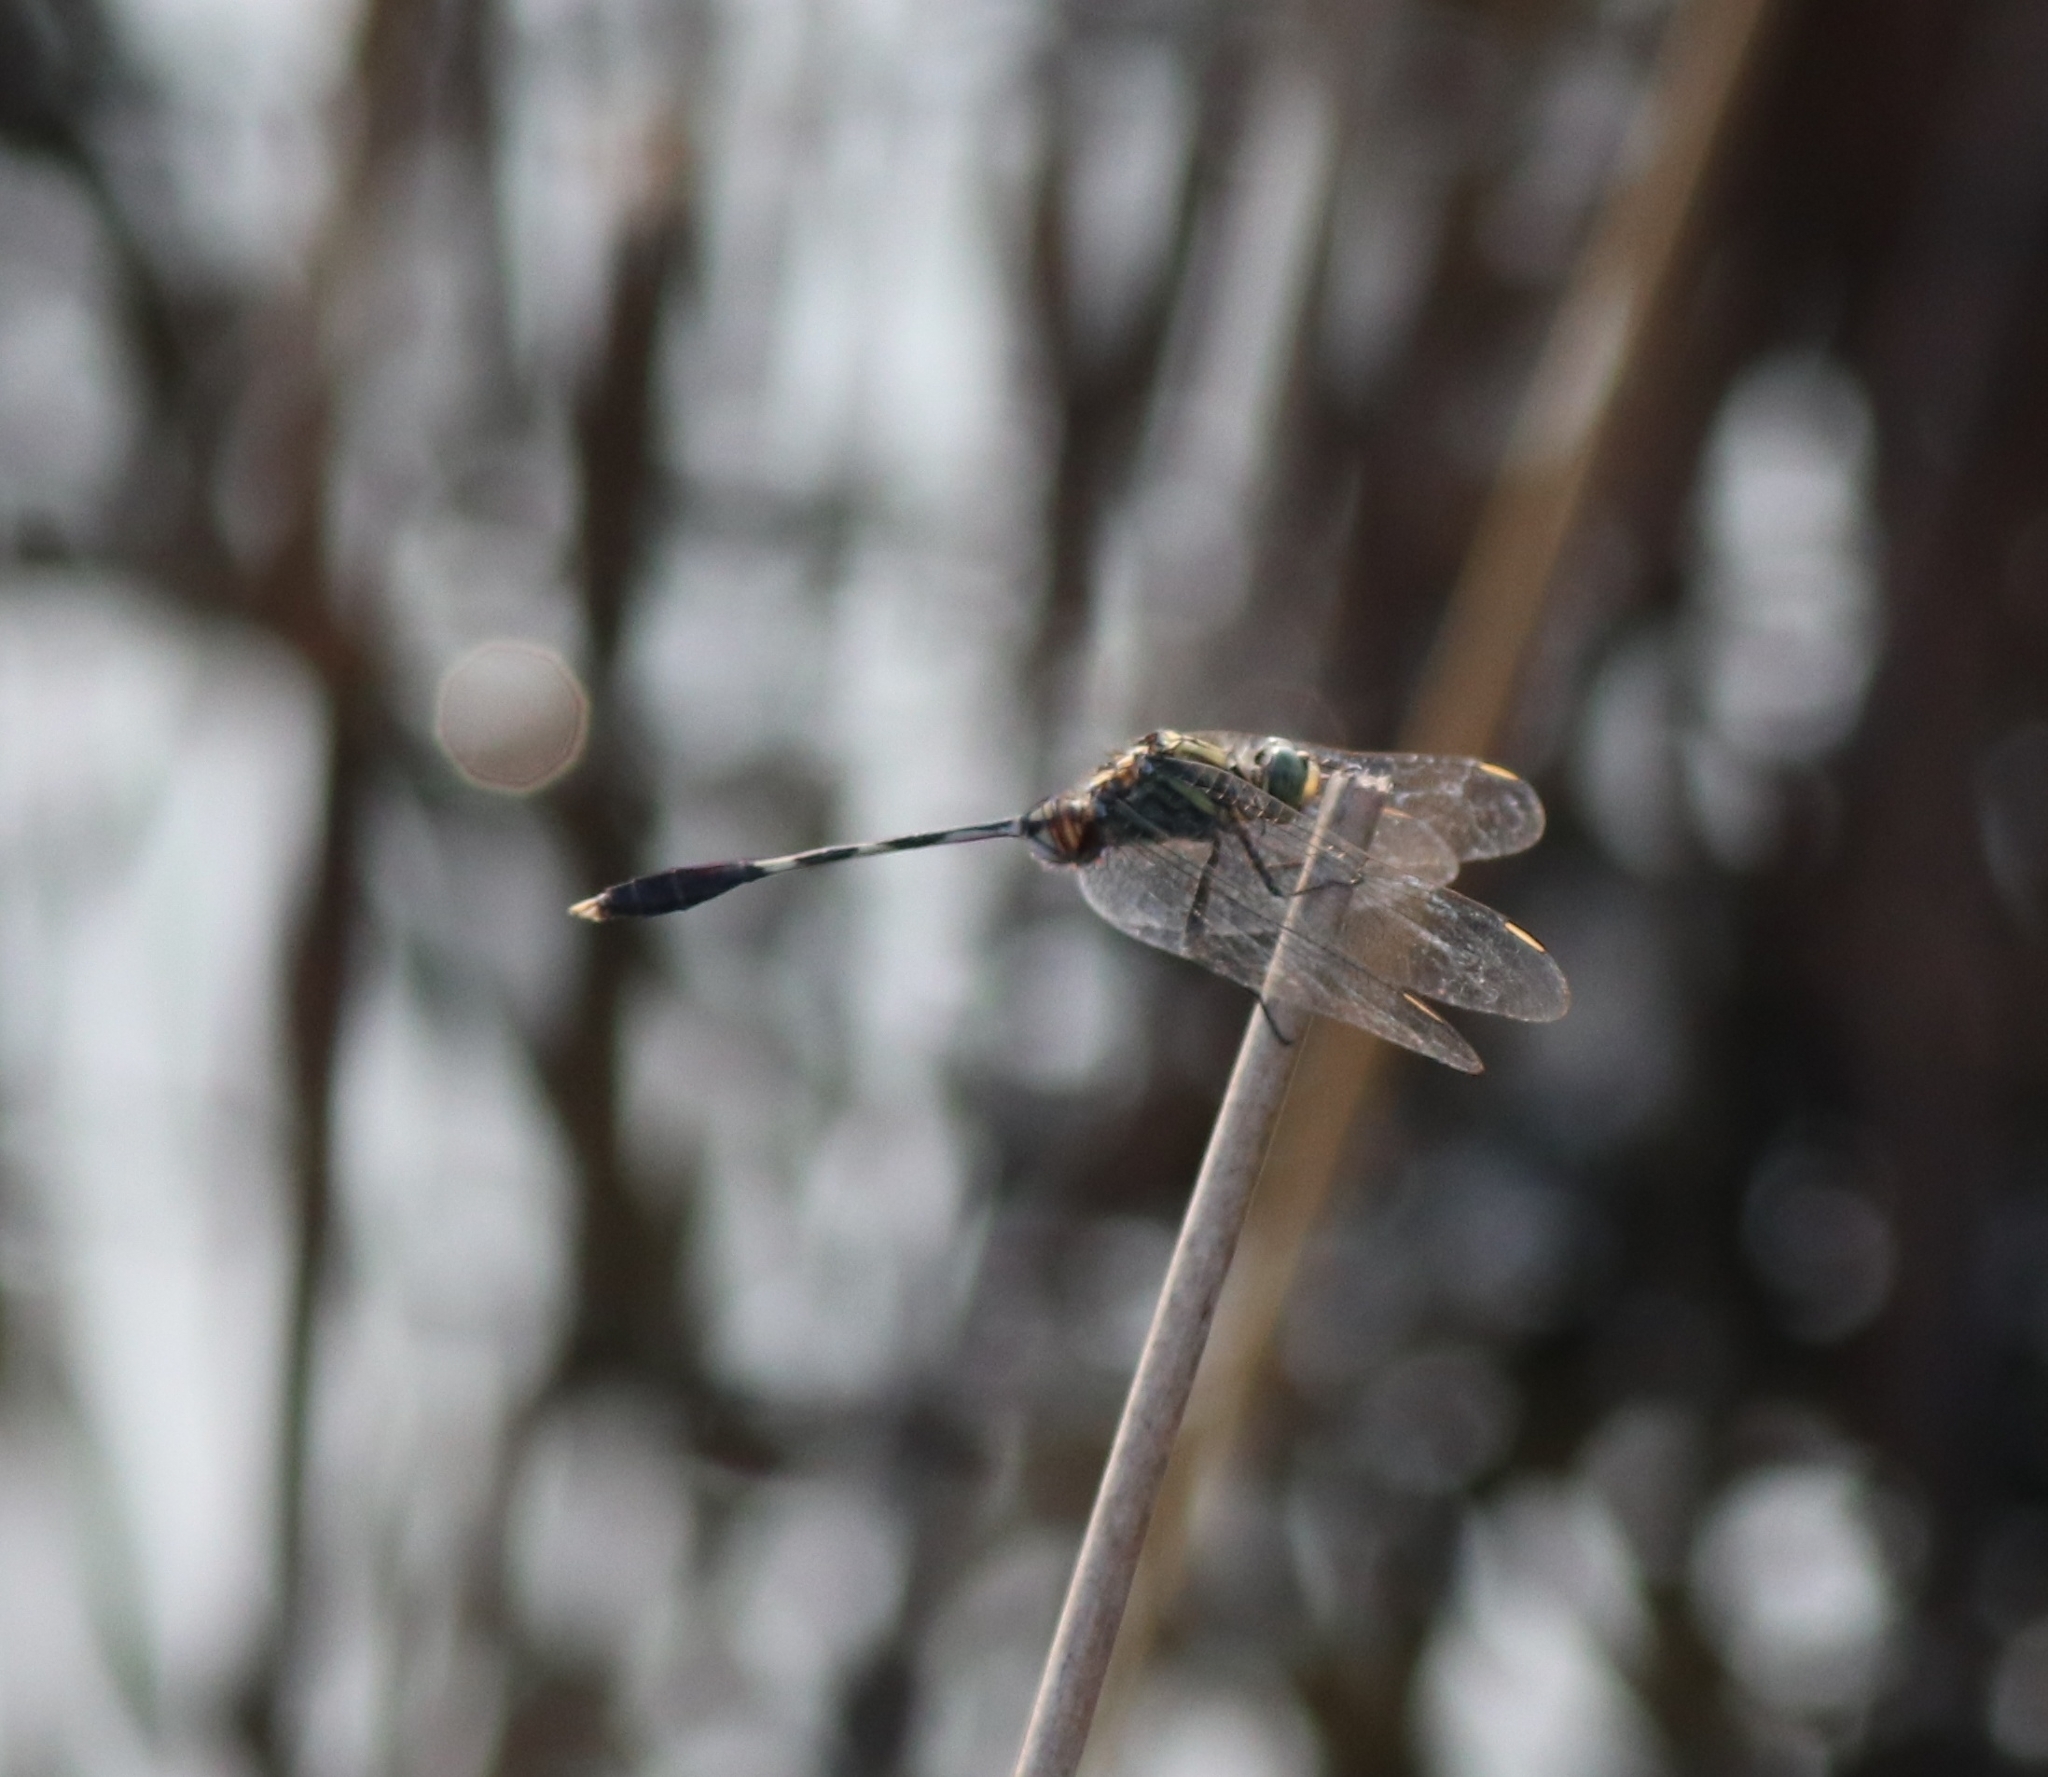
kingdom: Animalia
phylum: Arthropoda
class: Insecta
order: Odonata
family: Libellulidae
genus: Orthetrum
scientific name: Orthetrum sabina
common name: Slender skimmer
